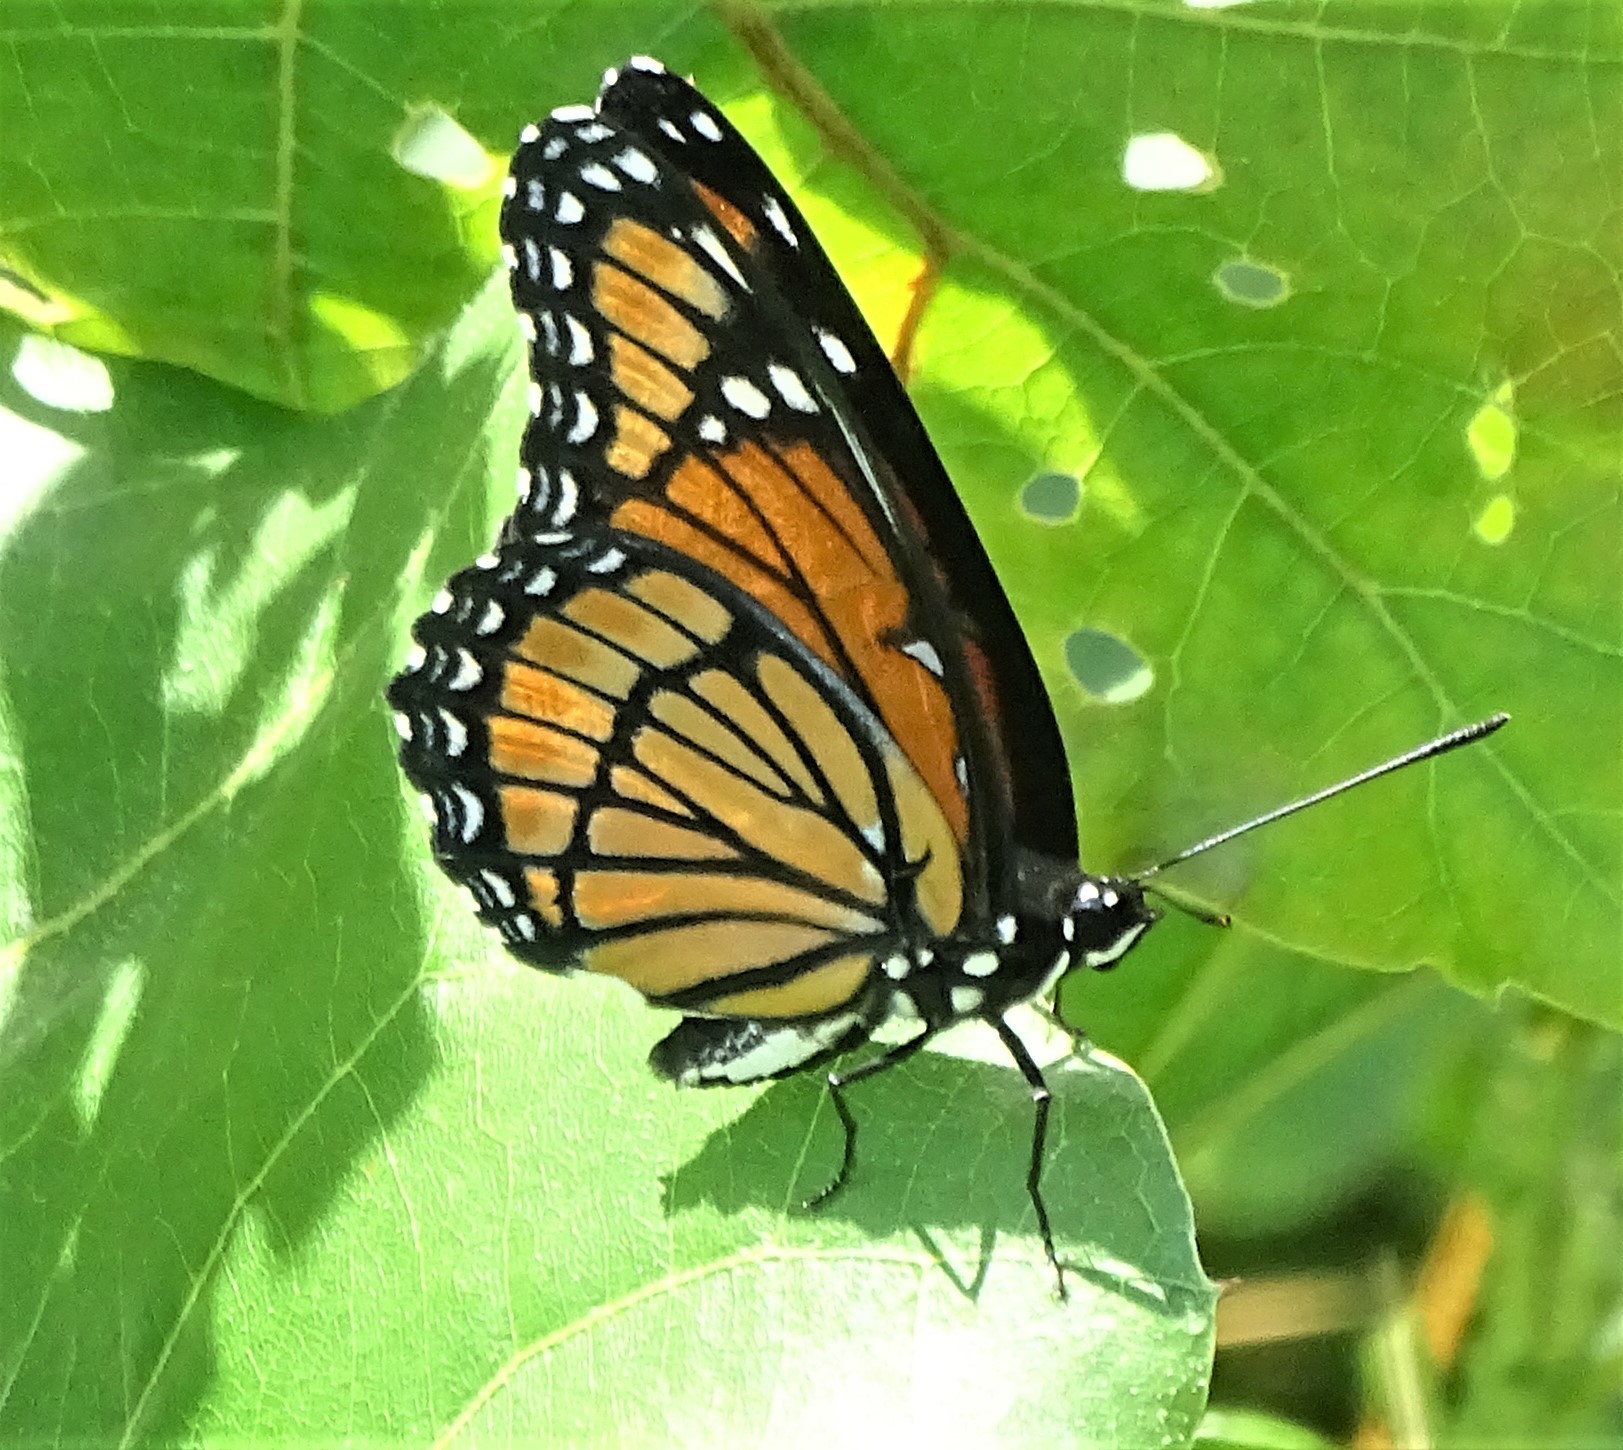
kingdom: Animalia
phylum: Arthropoda
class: Insecta
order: Lepidoptera
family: Nymphalidae
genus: Limenitis
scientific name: Limenitis archippus
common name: Viceroy
